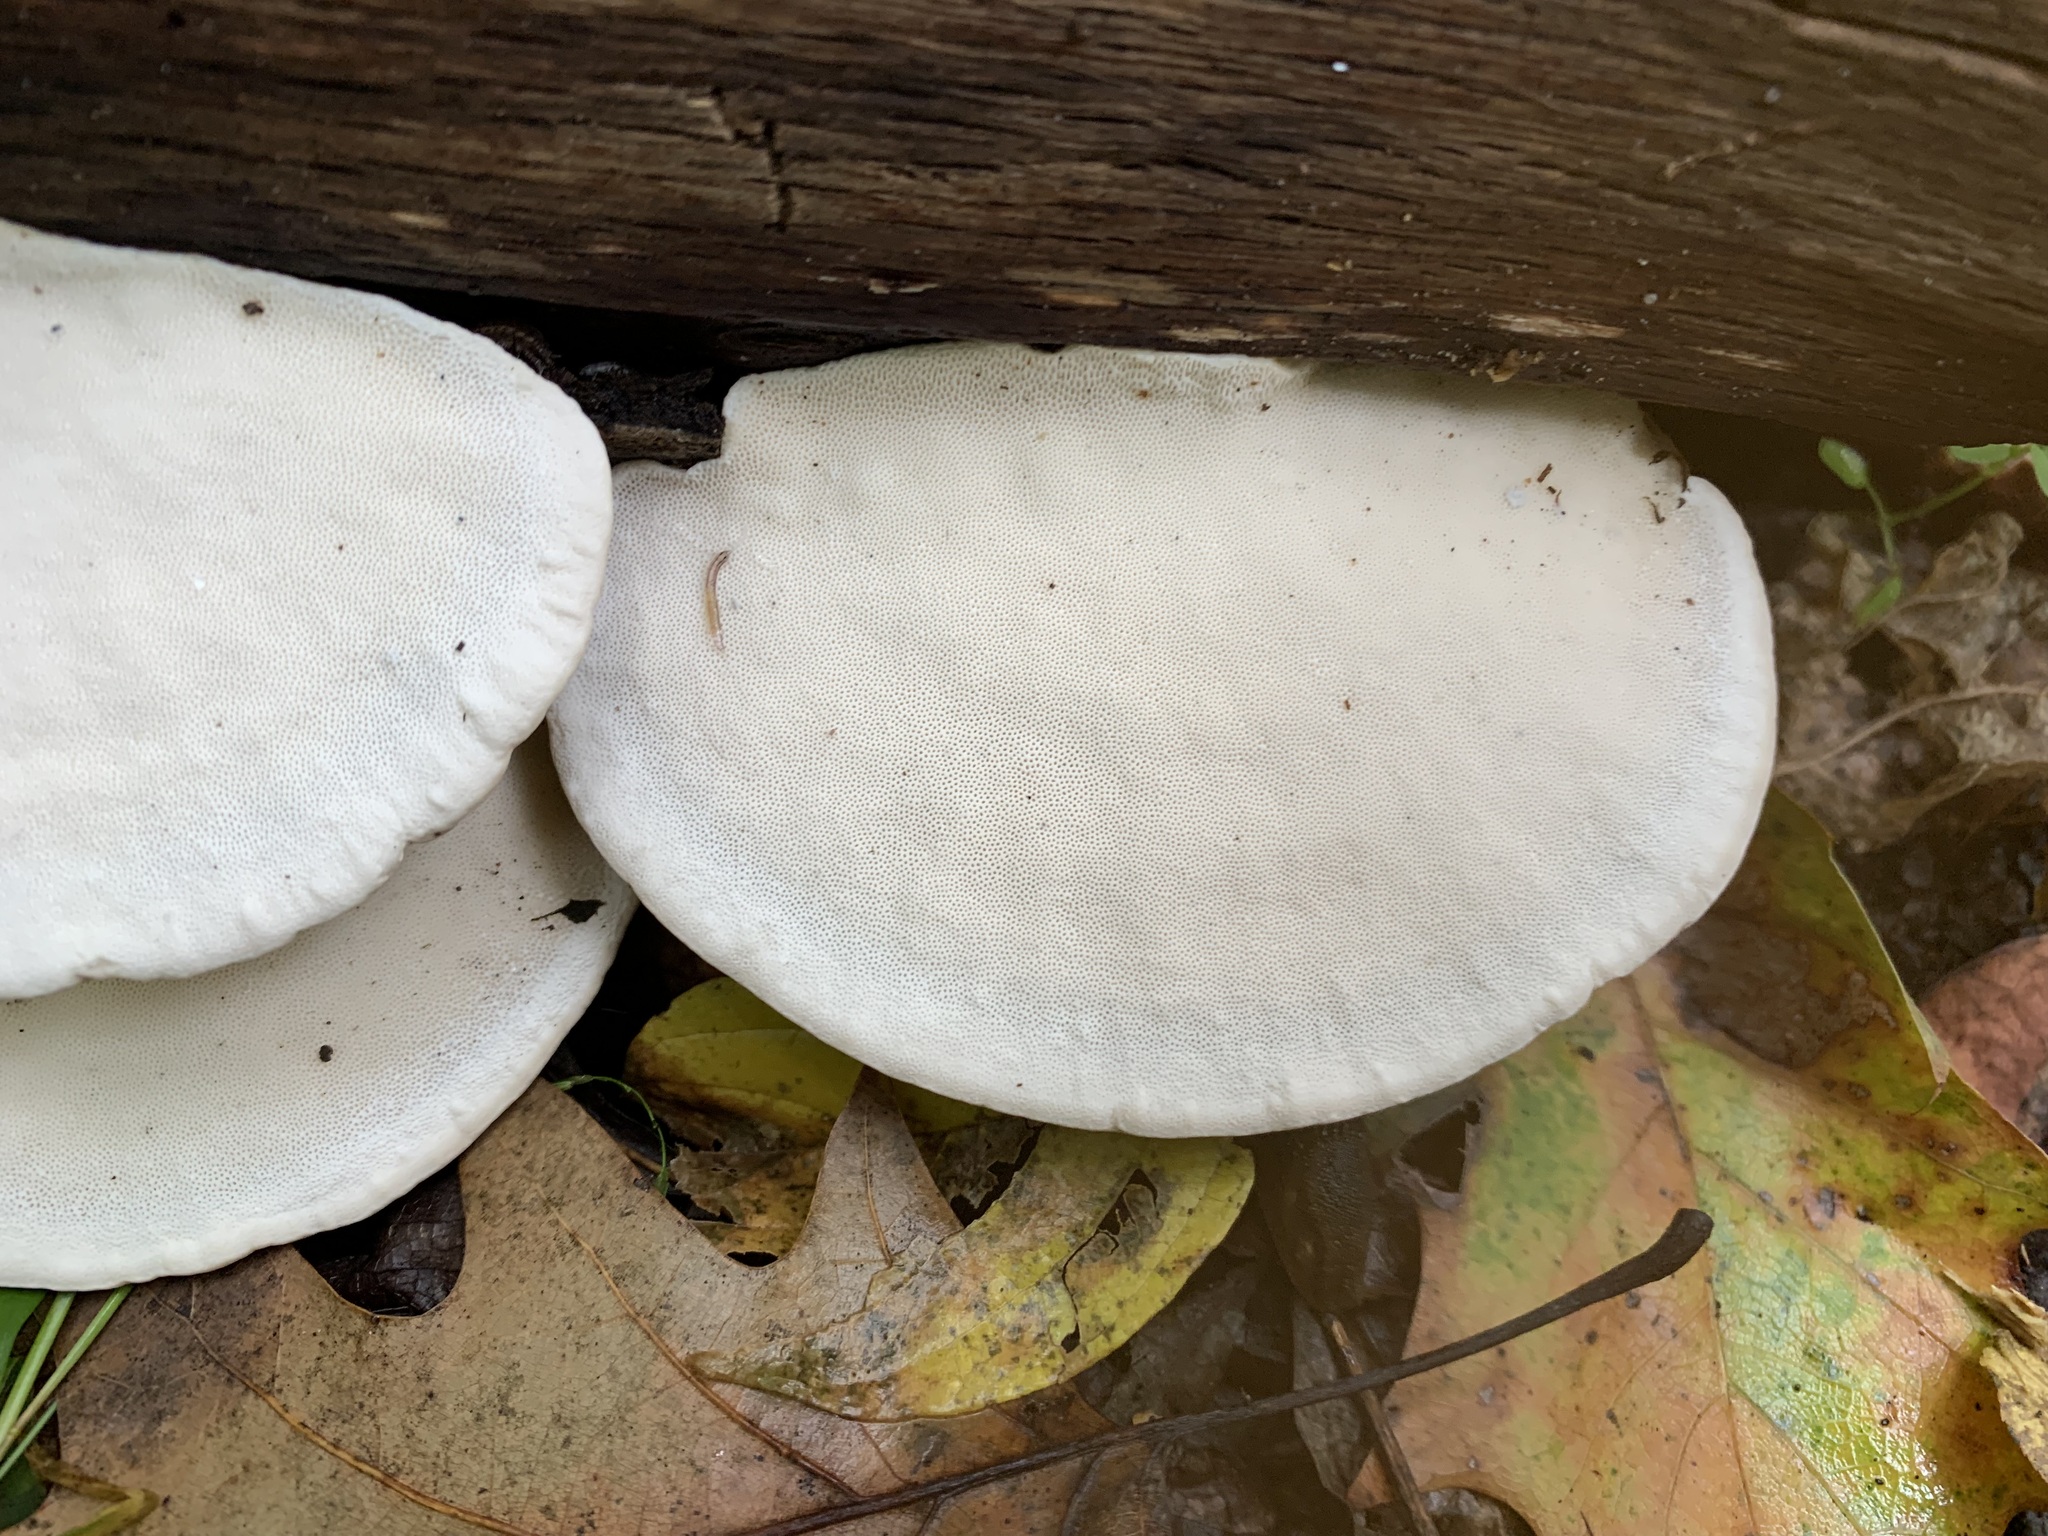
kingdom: Fungi
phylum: Basidiomycota
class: Agaricomycetes
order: Polyporales
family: Polyporaceae
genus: Trametes
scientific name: Trametes lactinea
